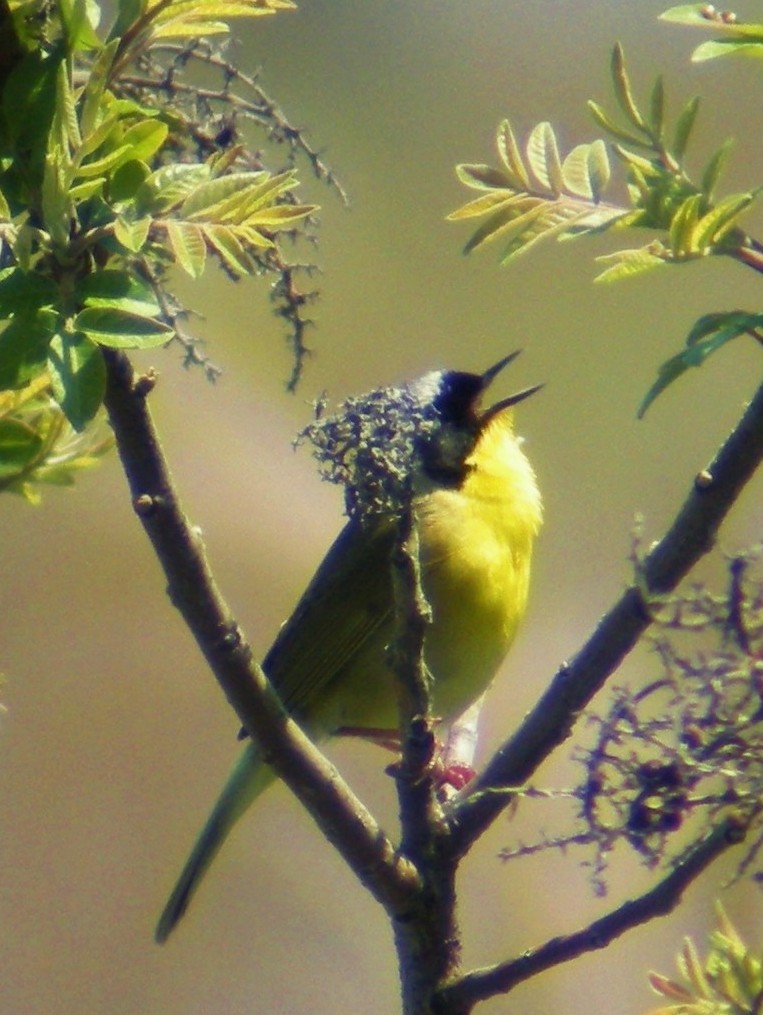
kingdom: Animalia
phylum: Chordata
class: Aves
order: Passeriformes
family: Parulidae
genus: Geothlypis
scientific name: Geothlypis trichas
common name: Common yellowthroat
